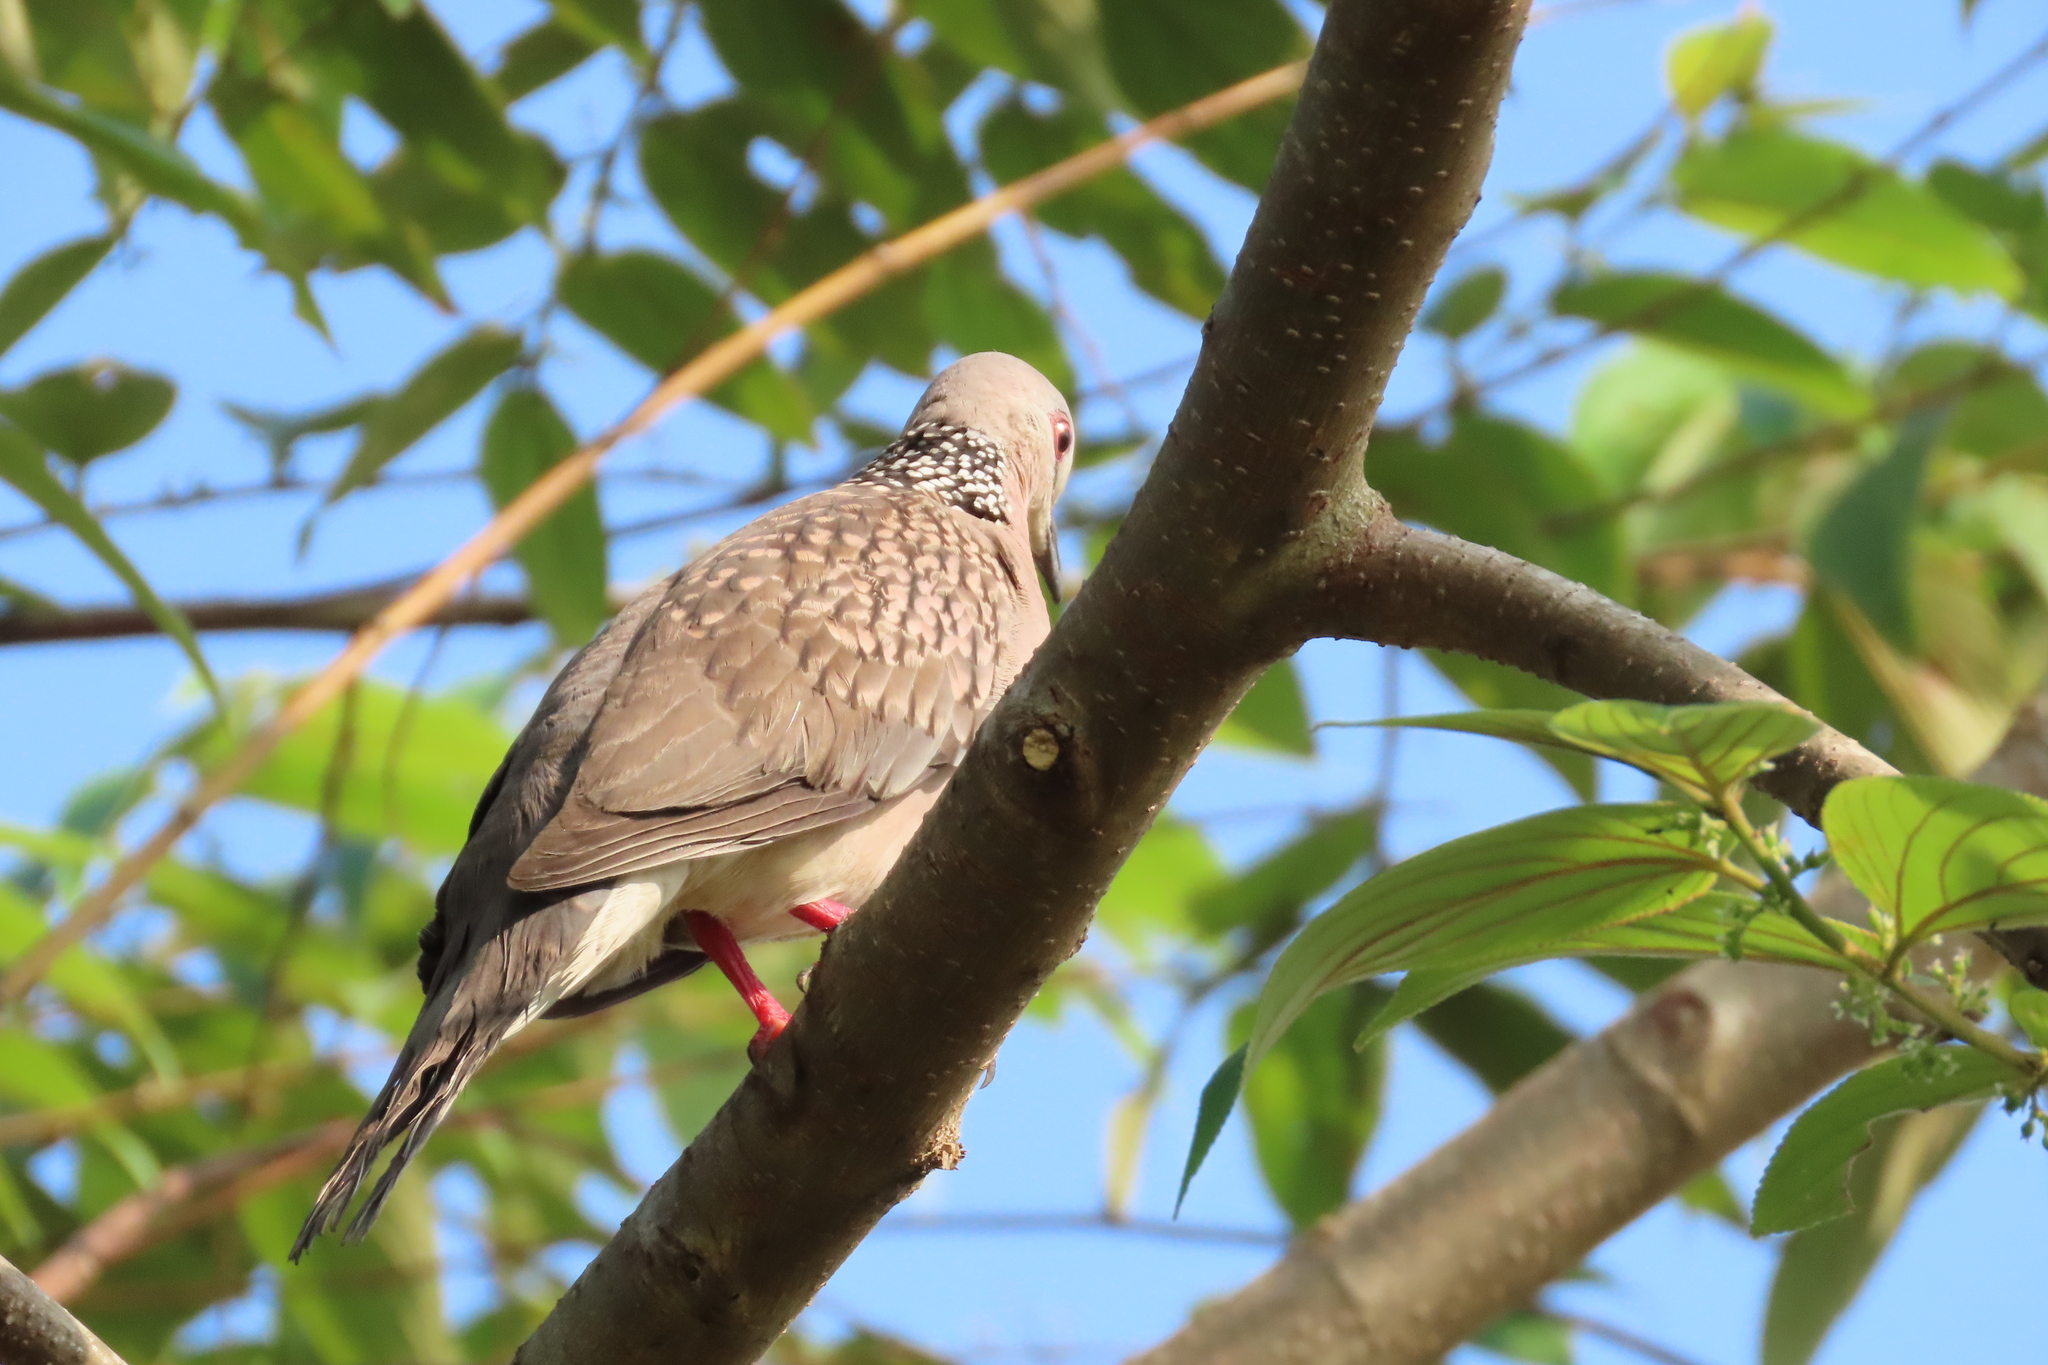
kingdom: Animalia
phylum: Chordata
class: Aves
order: Columbiformes
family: Columbidae
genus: Spilopelia
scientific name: Spilopelia chinensis
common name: Spotted dove
